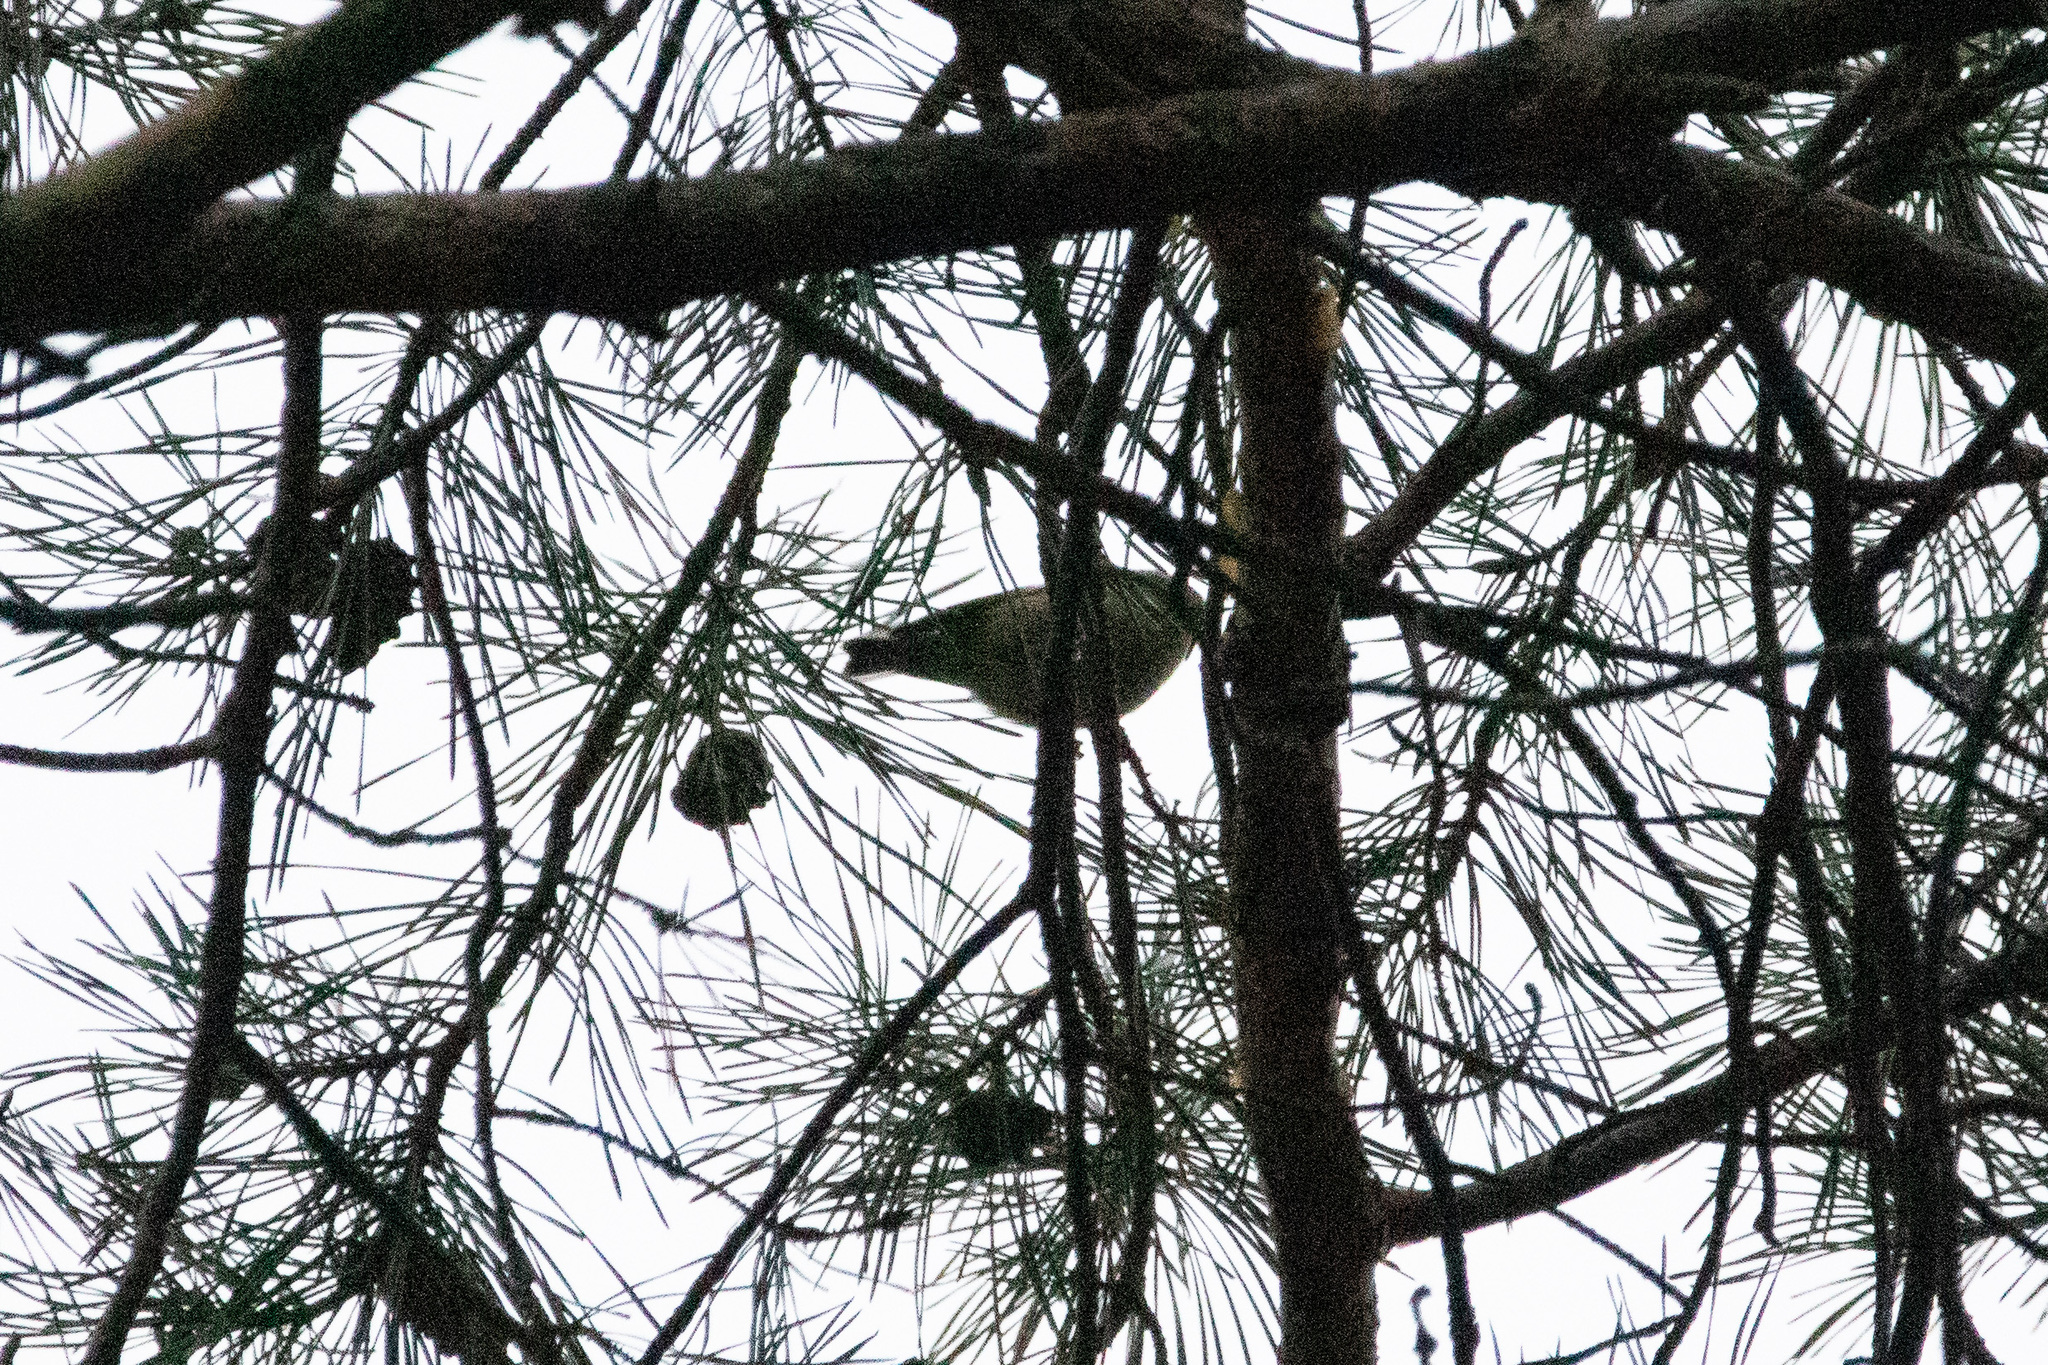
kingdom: Animalia
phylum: Chordata
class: Aves
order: Passeriformes
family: Regulidae
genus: Regulus
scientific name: Regulus regulus
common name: Goldcrest
